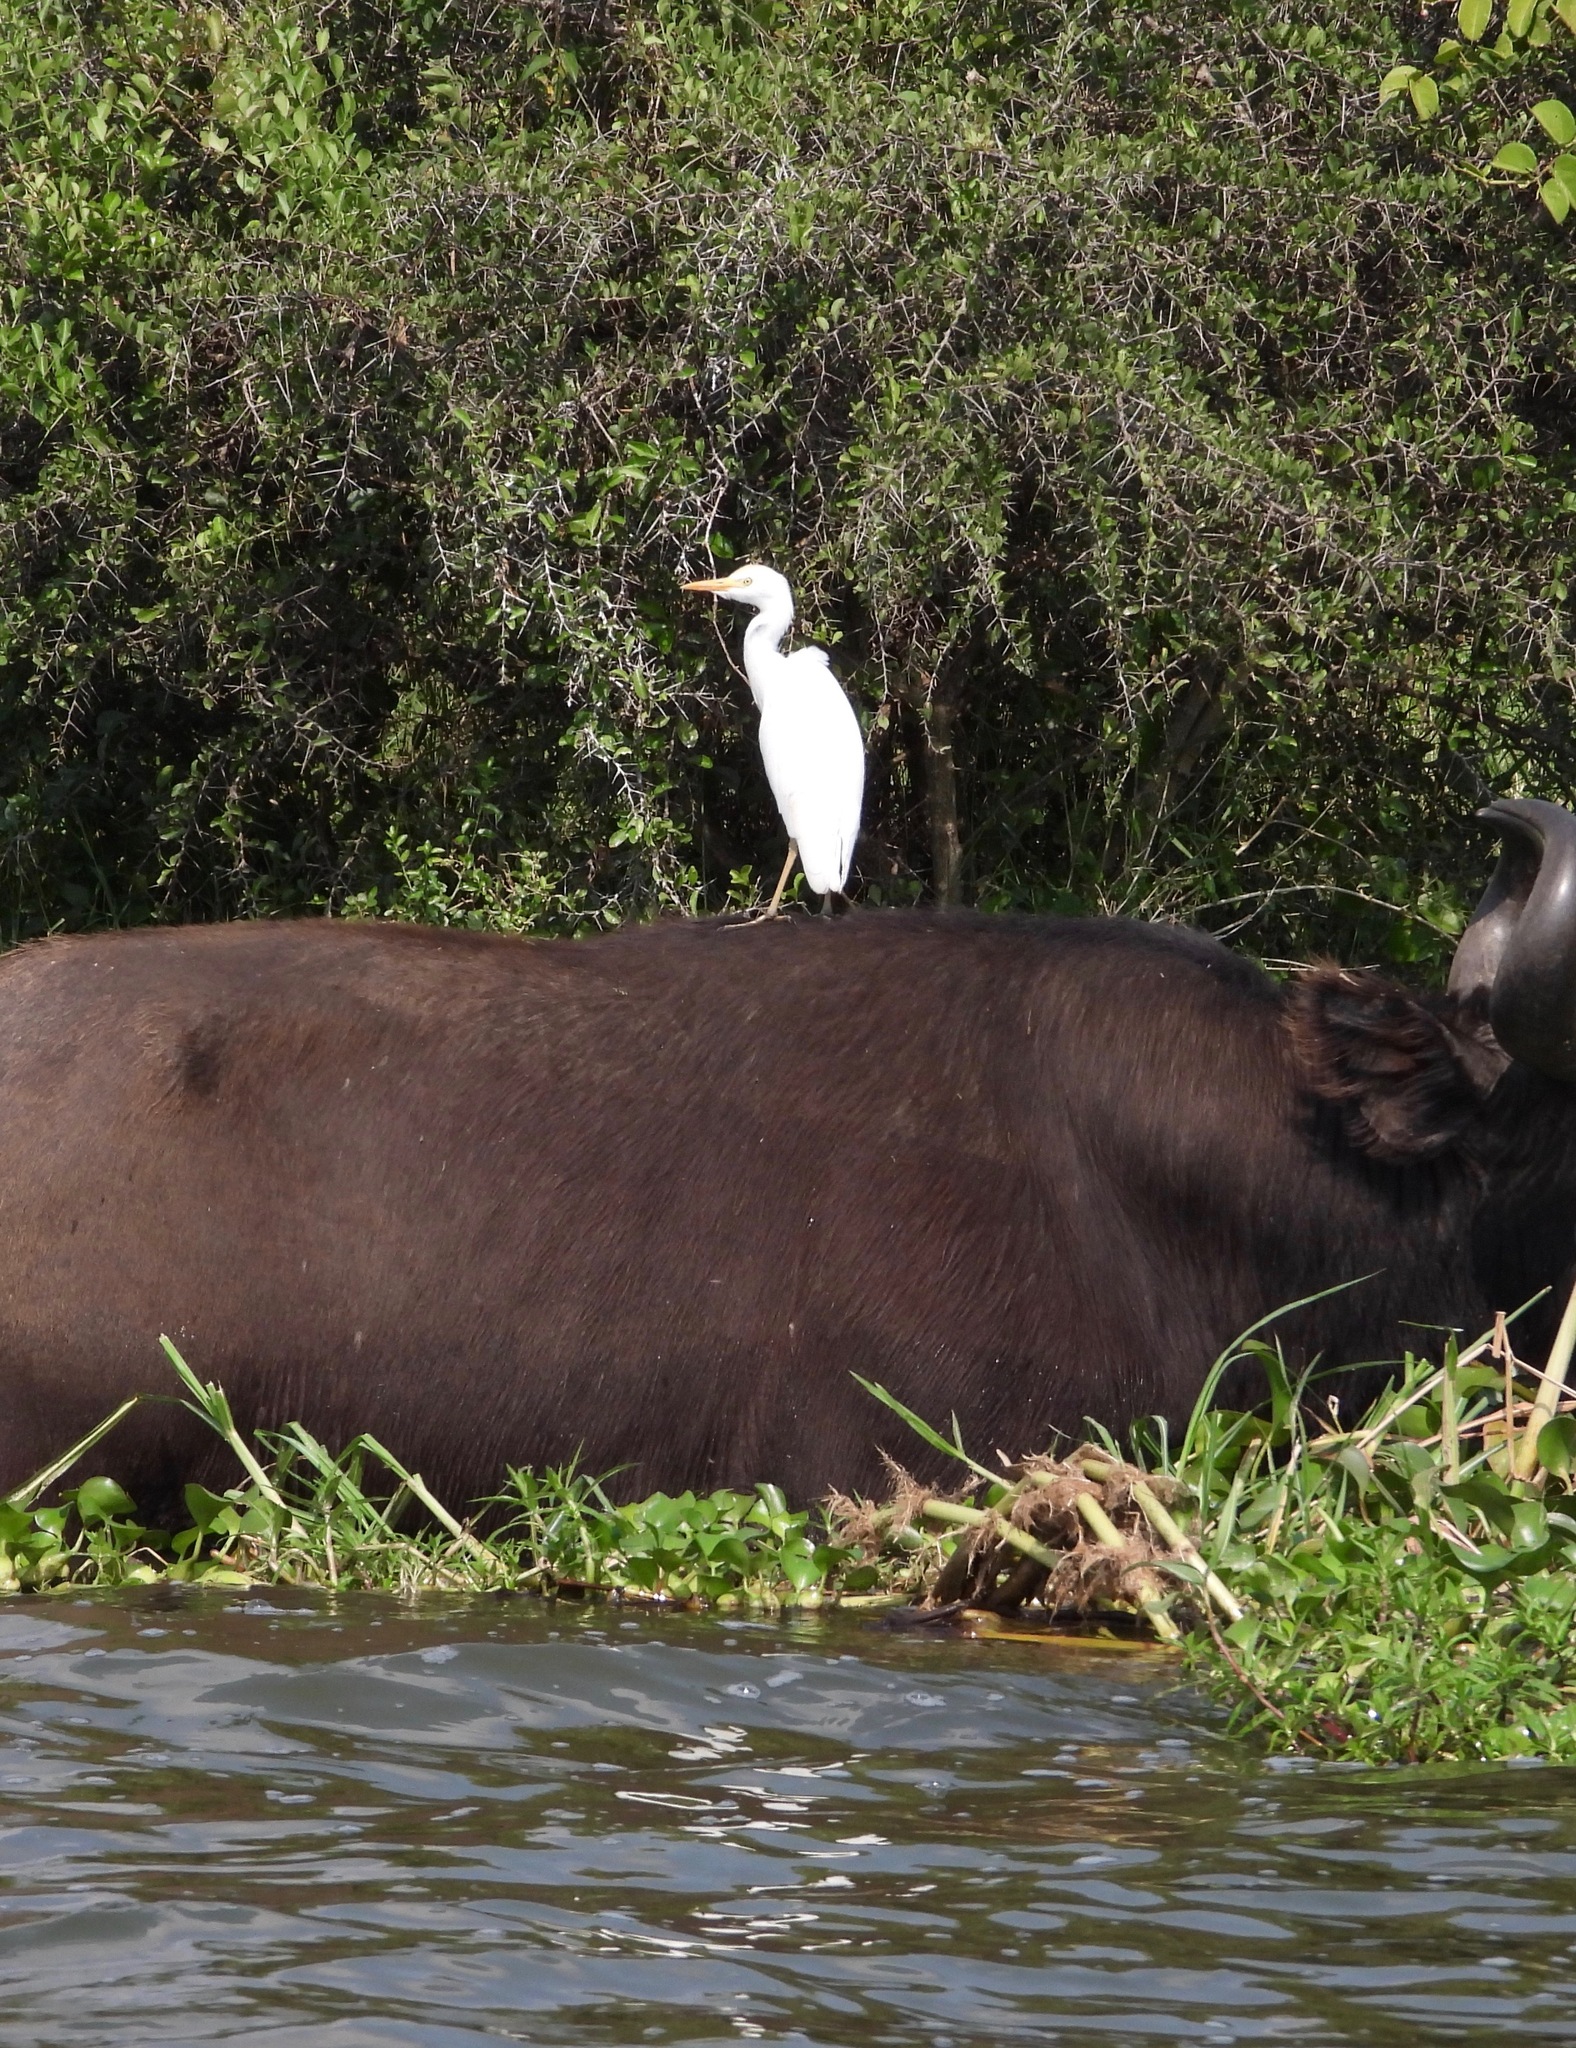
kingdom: Animalia
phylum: Chordata
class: Aves
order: Pelecaniformes
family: Ardeidae
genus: Bubulcus
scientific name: Bubulcus ibis
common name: Cattle egret
